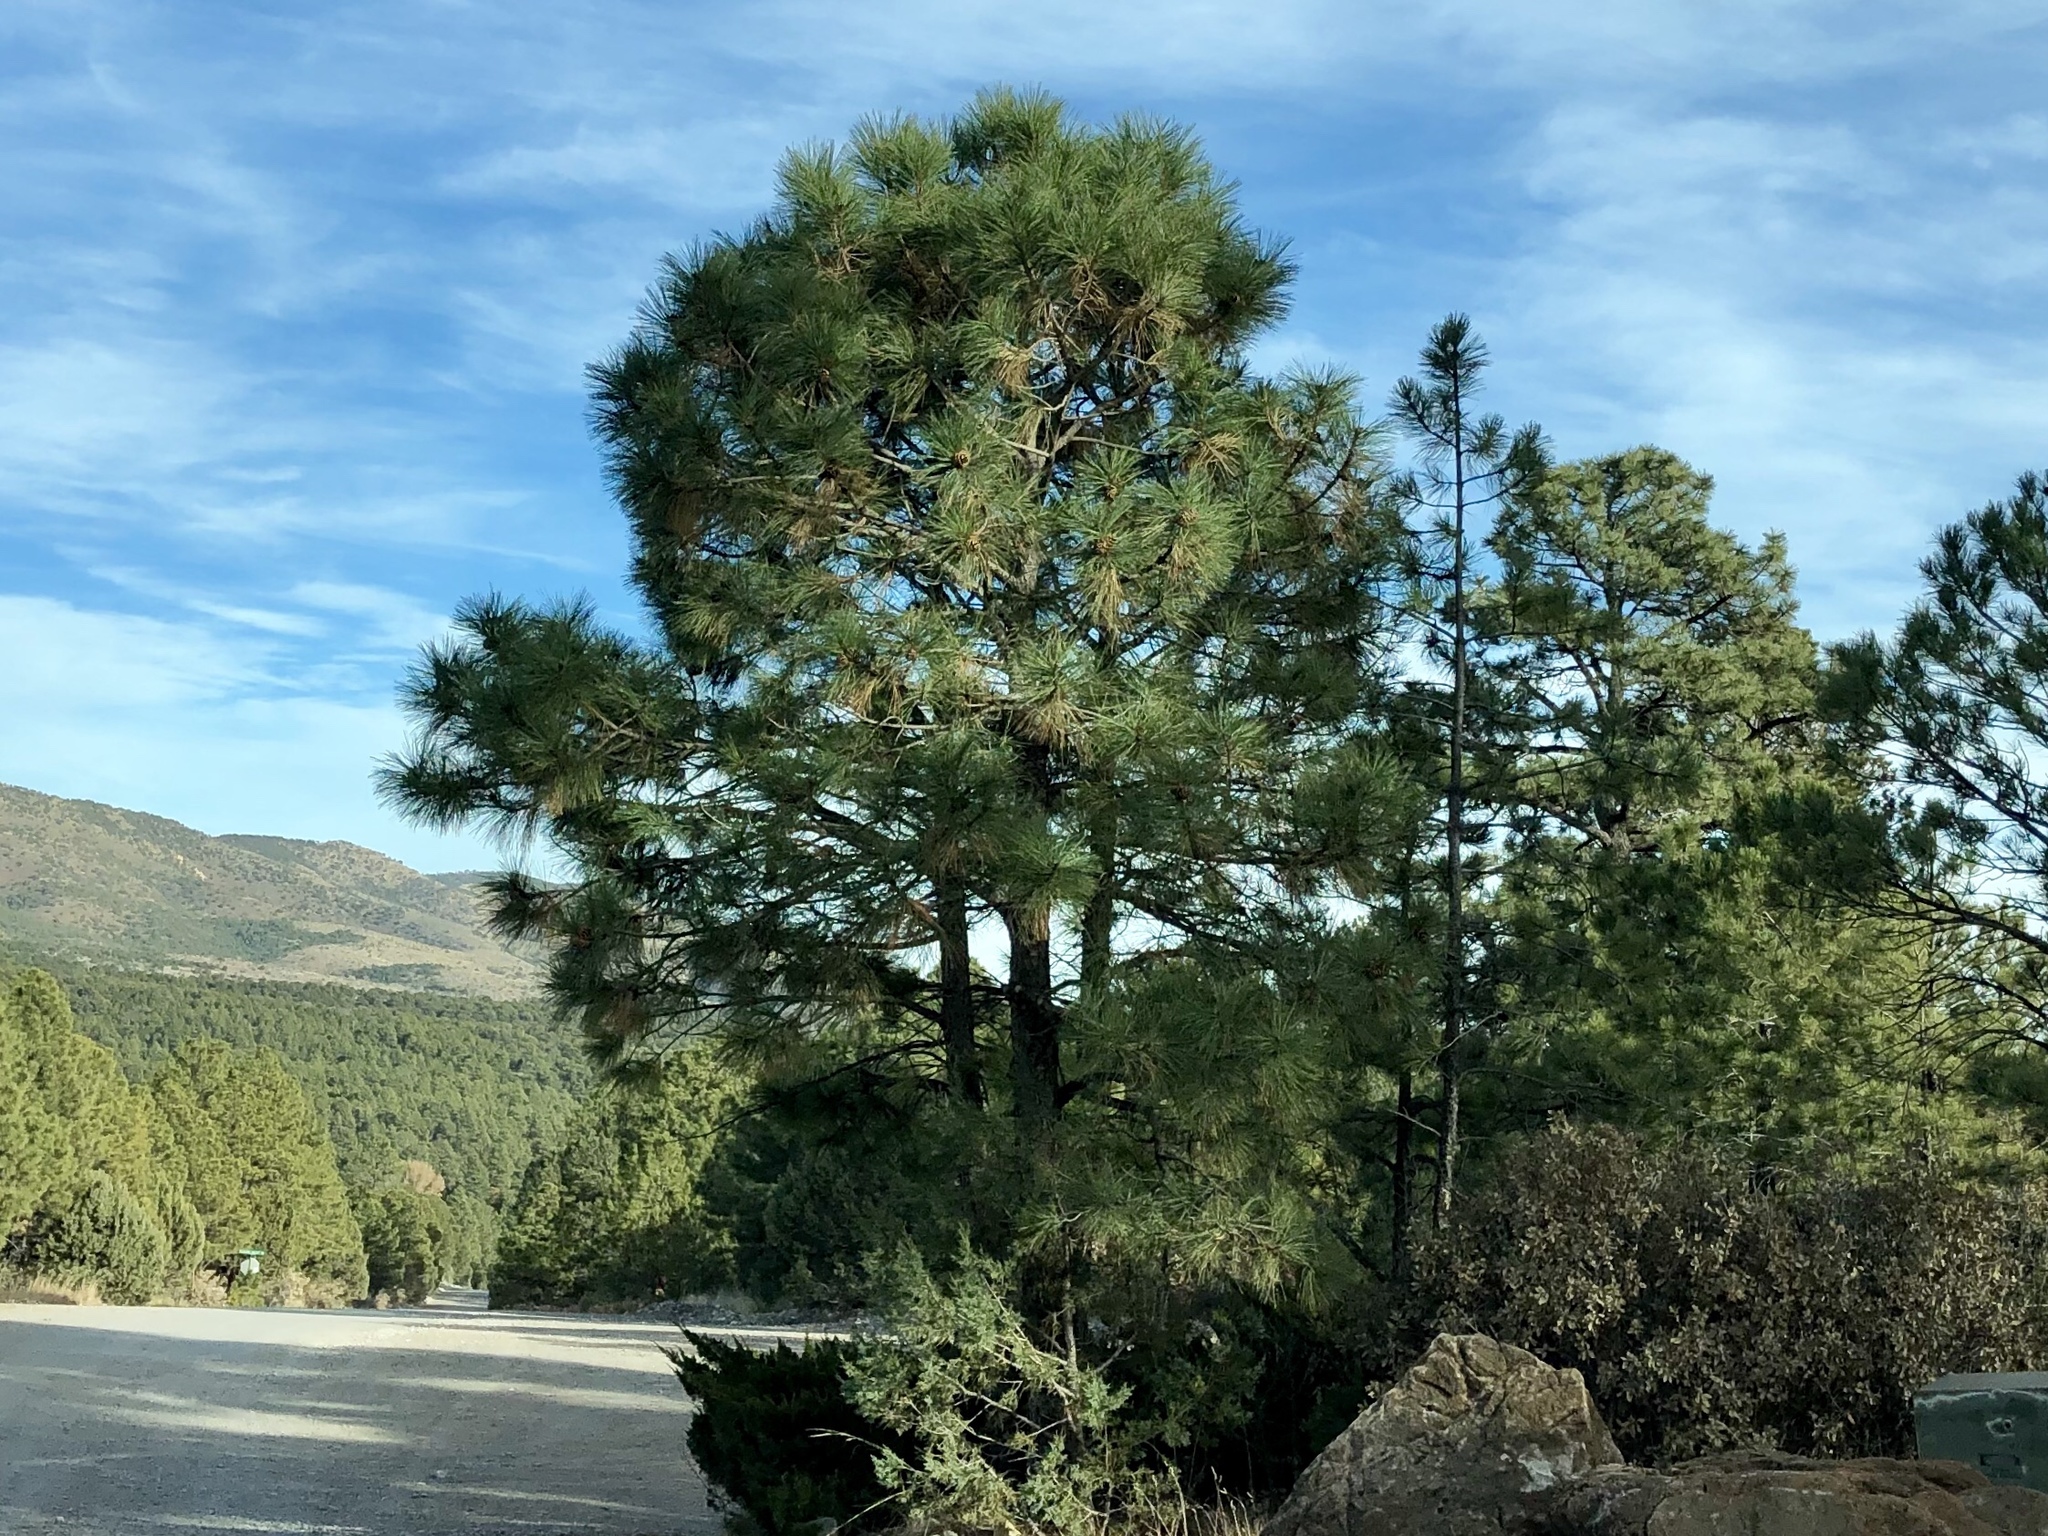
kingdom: Plantae
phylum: Tracheophyta
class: Pinopsida
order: Pinales
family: Pinaceae
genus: Pinus
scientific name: Pinus ponderosa
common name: Western yellow-pine
